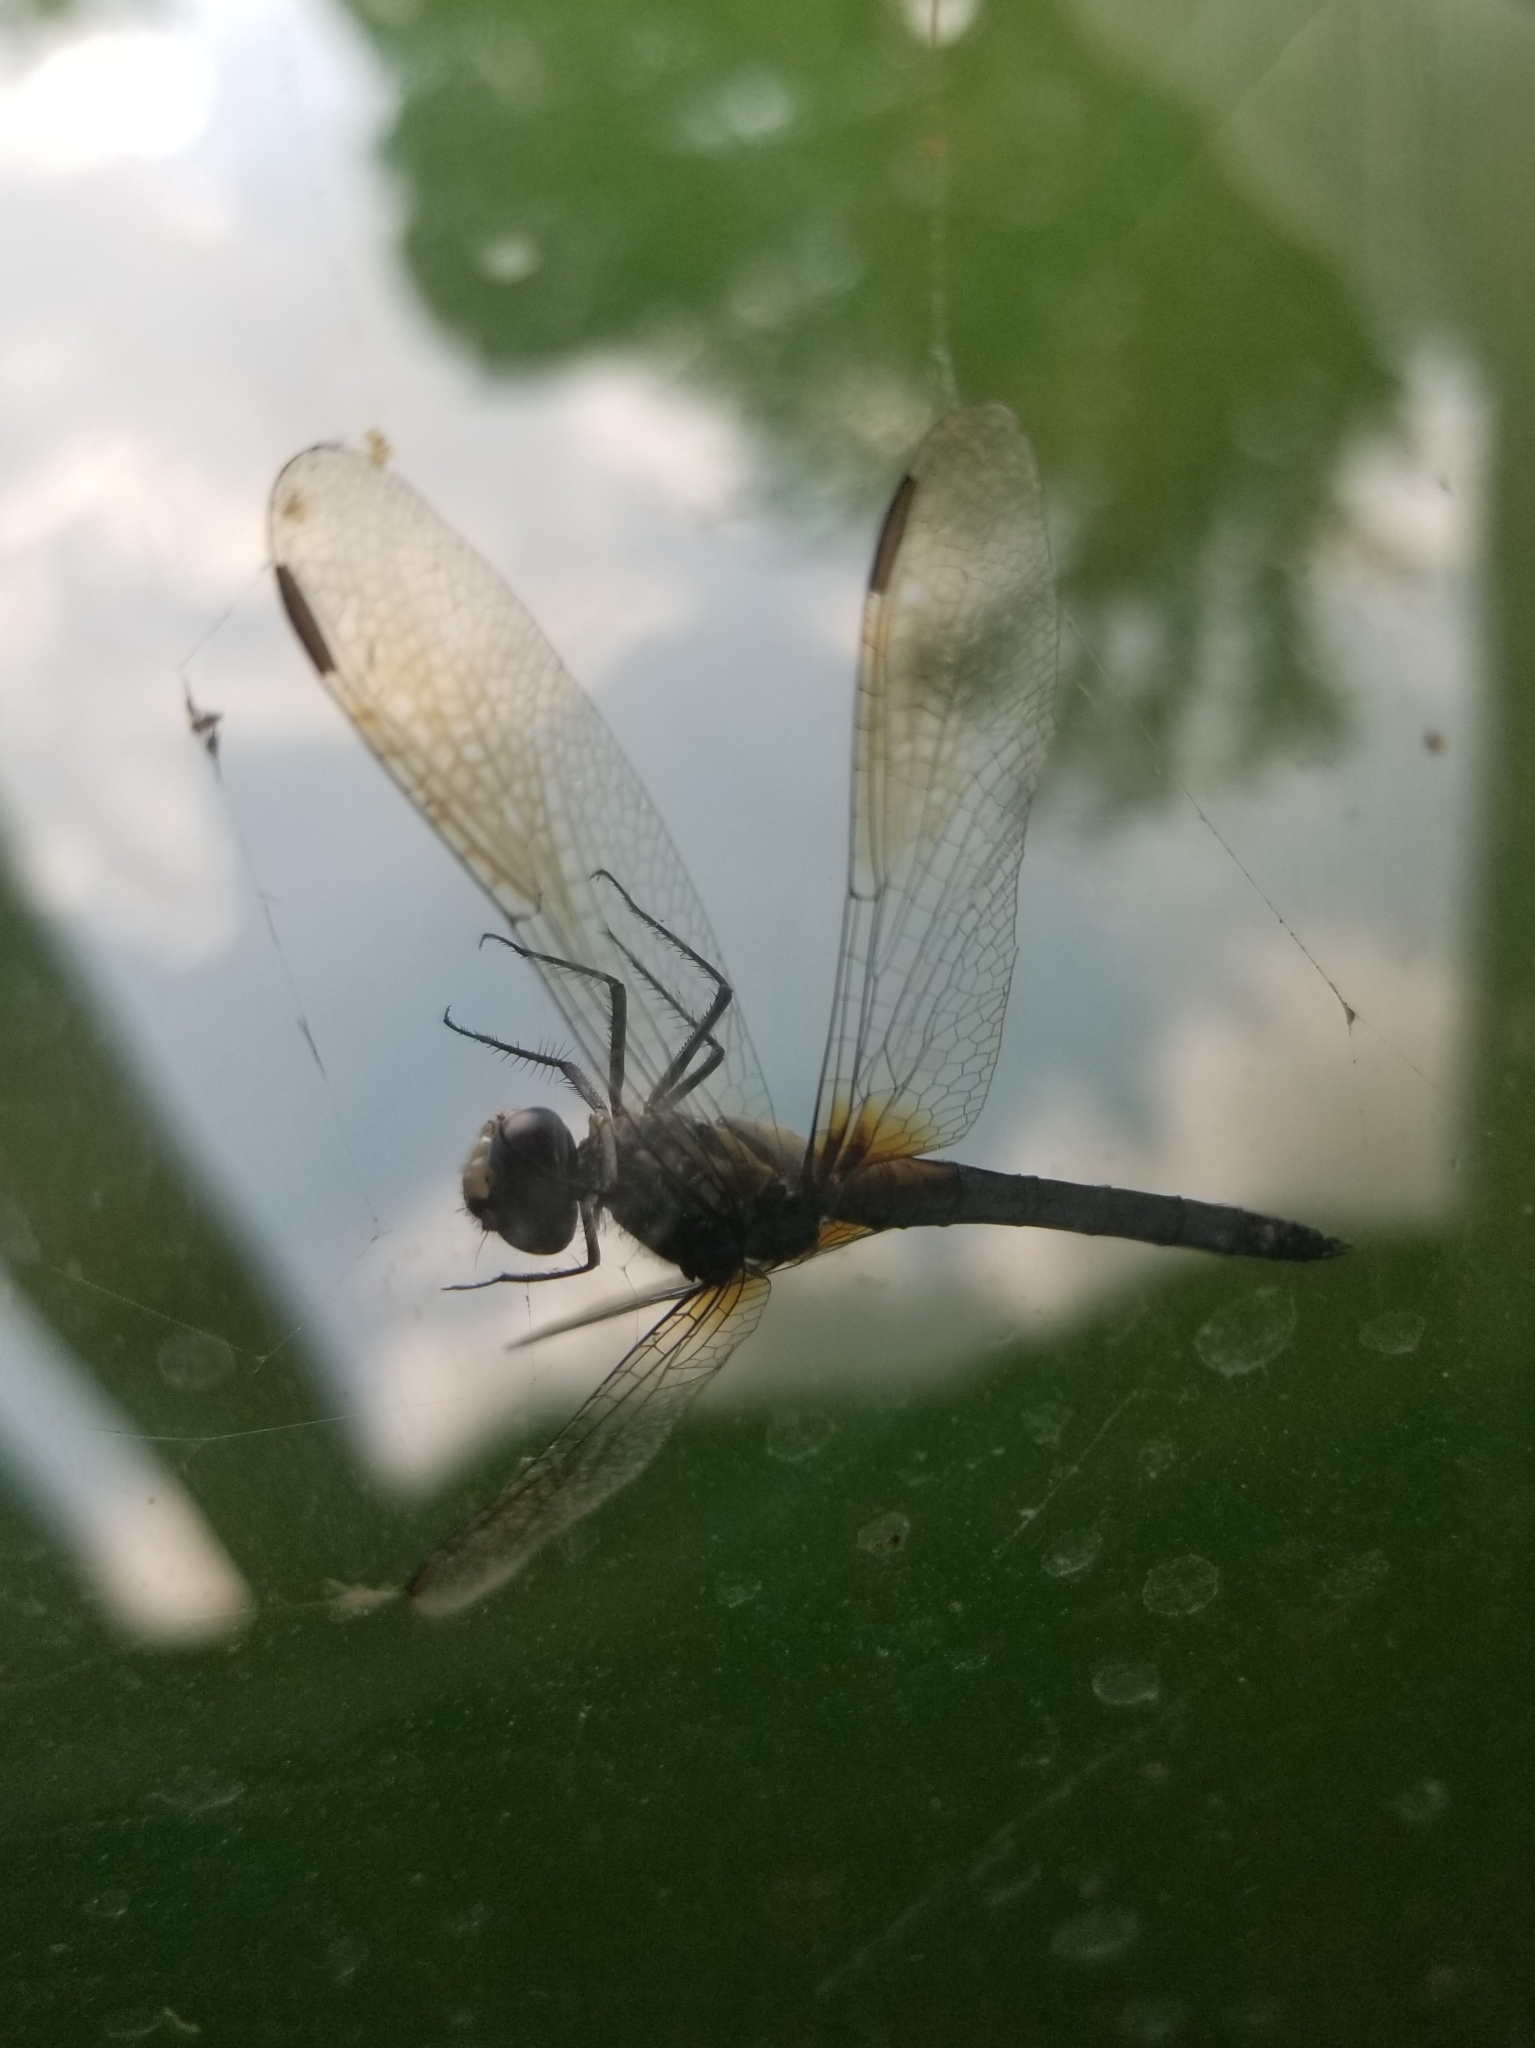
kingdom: Animalia
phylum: Arthropoda
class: Insecta
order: Odonata
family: Libellulidae
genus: Pachydiplax
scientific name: Pachydiplax longipennis
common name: Blue dasher
